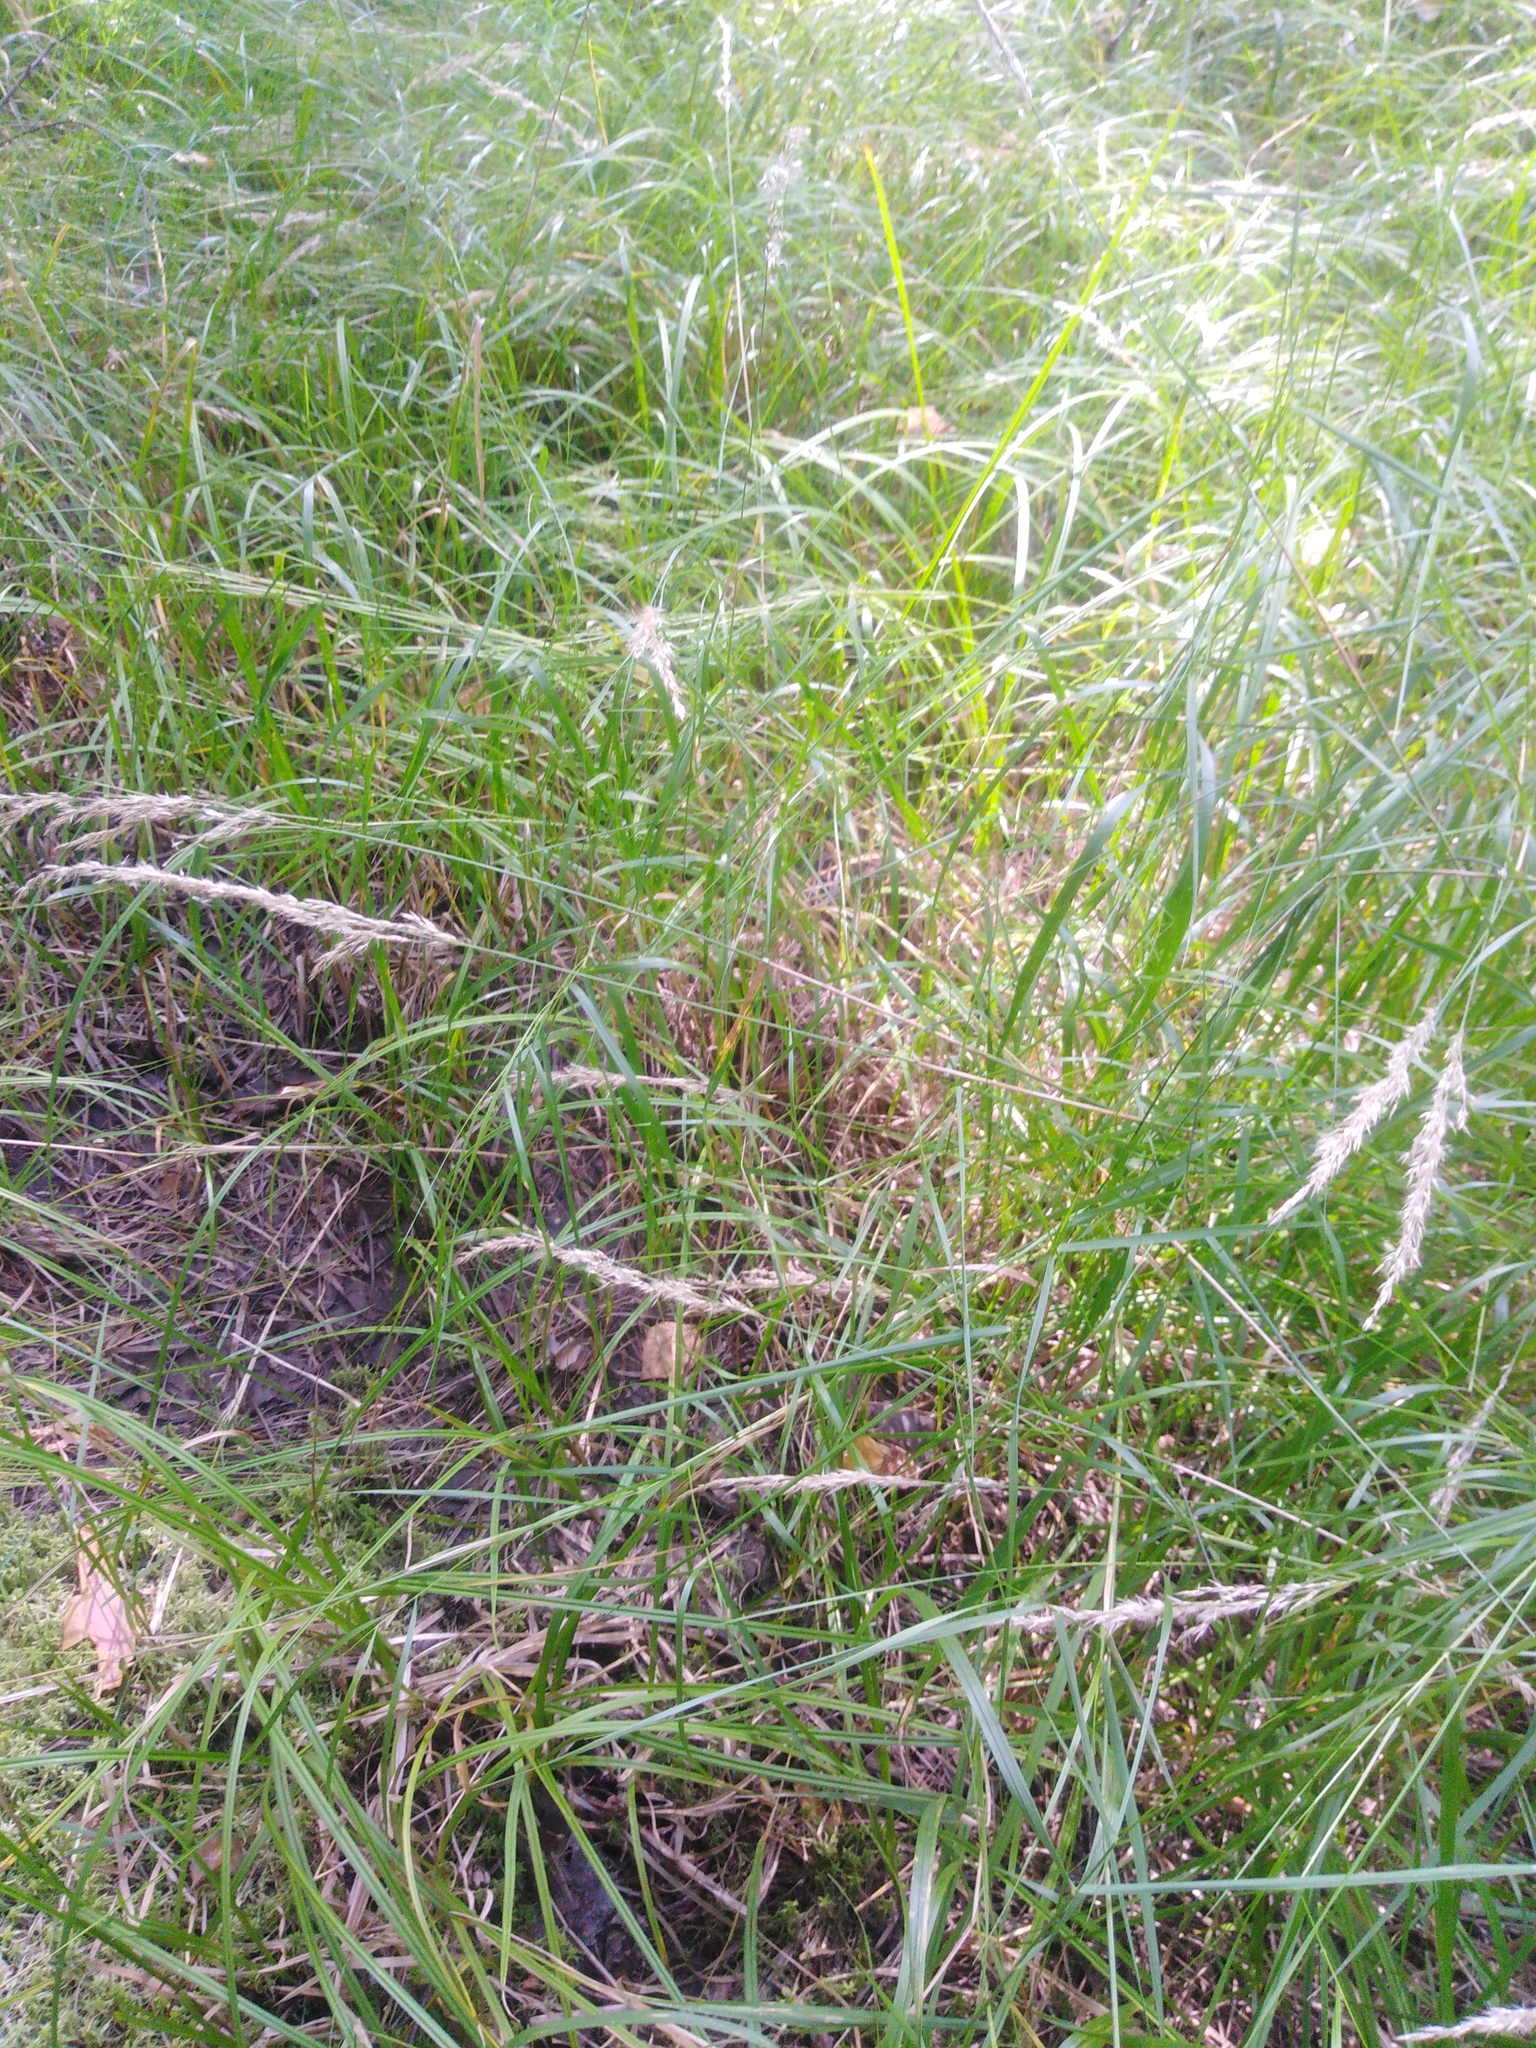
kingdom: Plantae
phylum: Tracheophyta
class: Liliopsida
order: Poales
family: Poaceae
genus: Calamagrostis
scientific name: Calamagrostis canescens
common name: Purple small-reed
